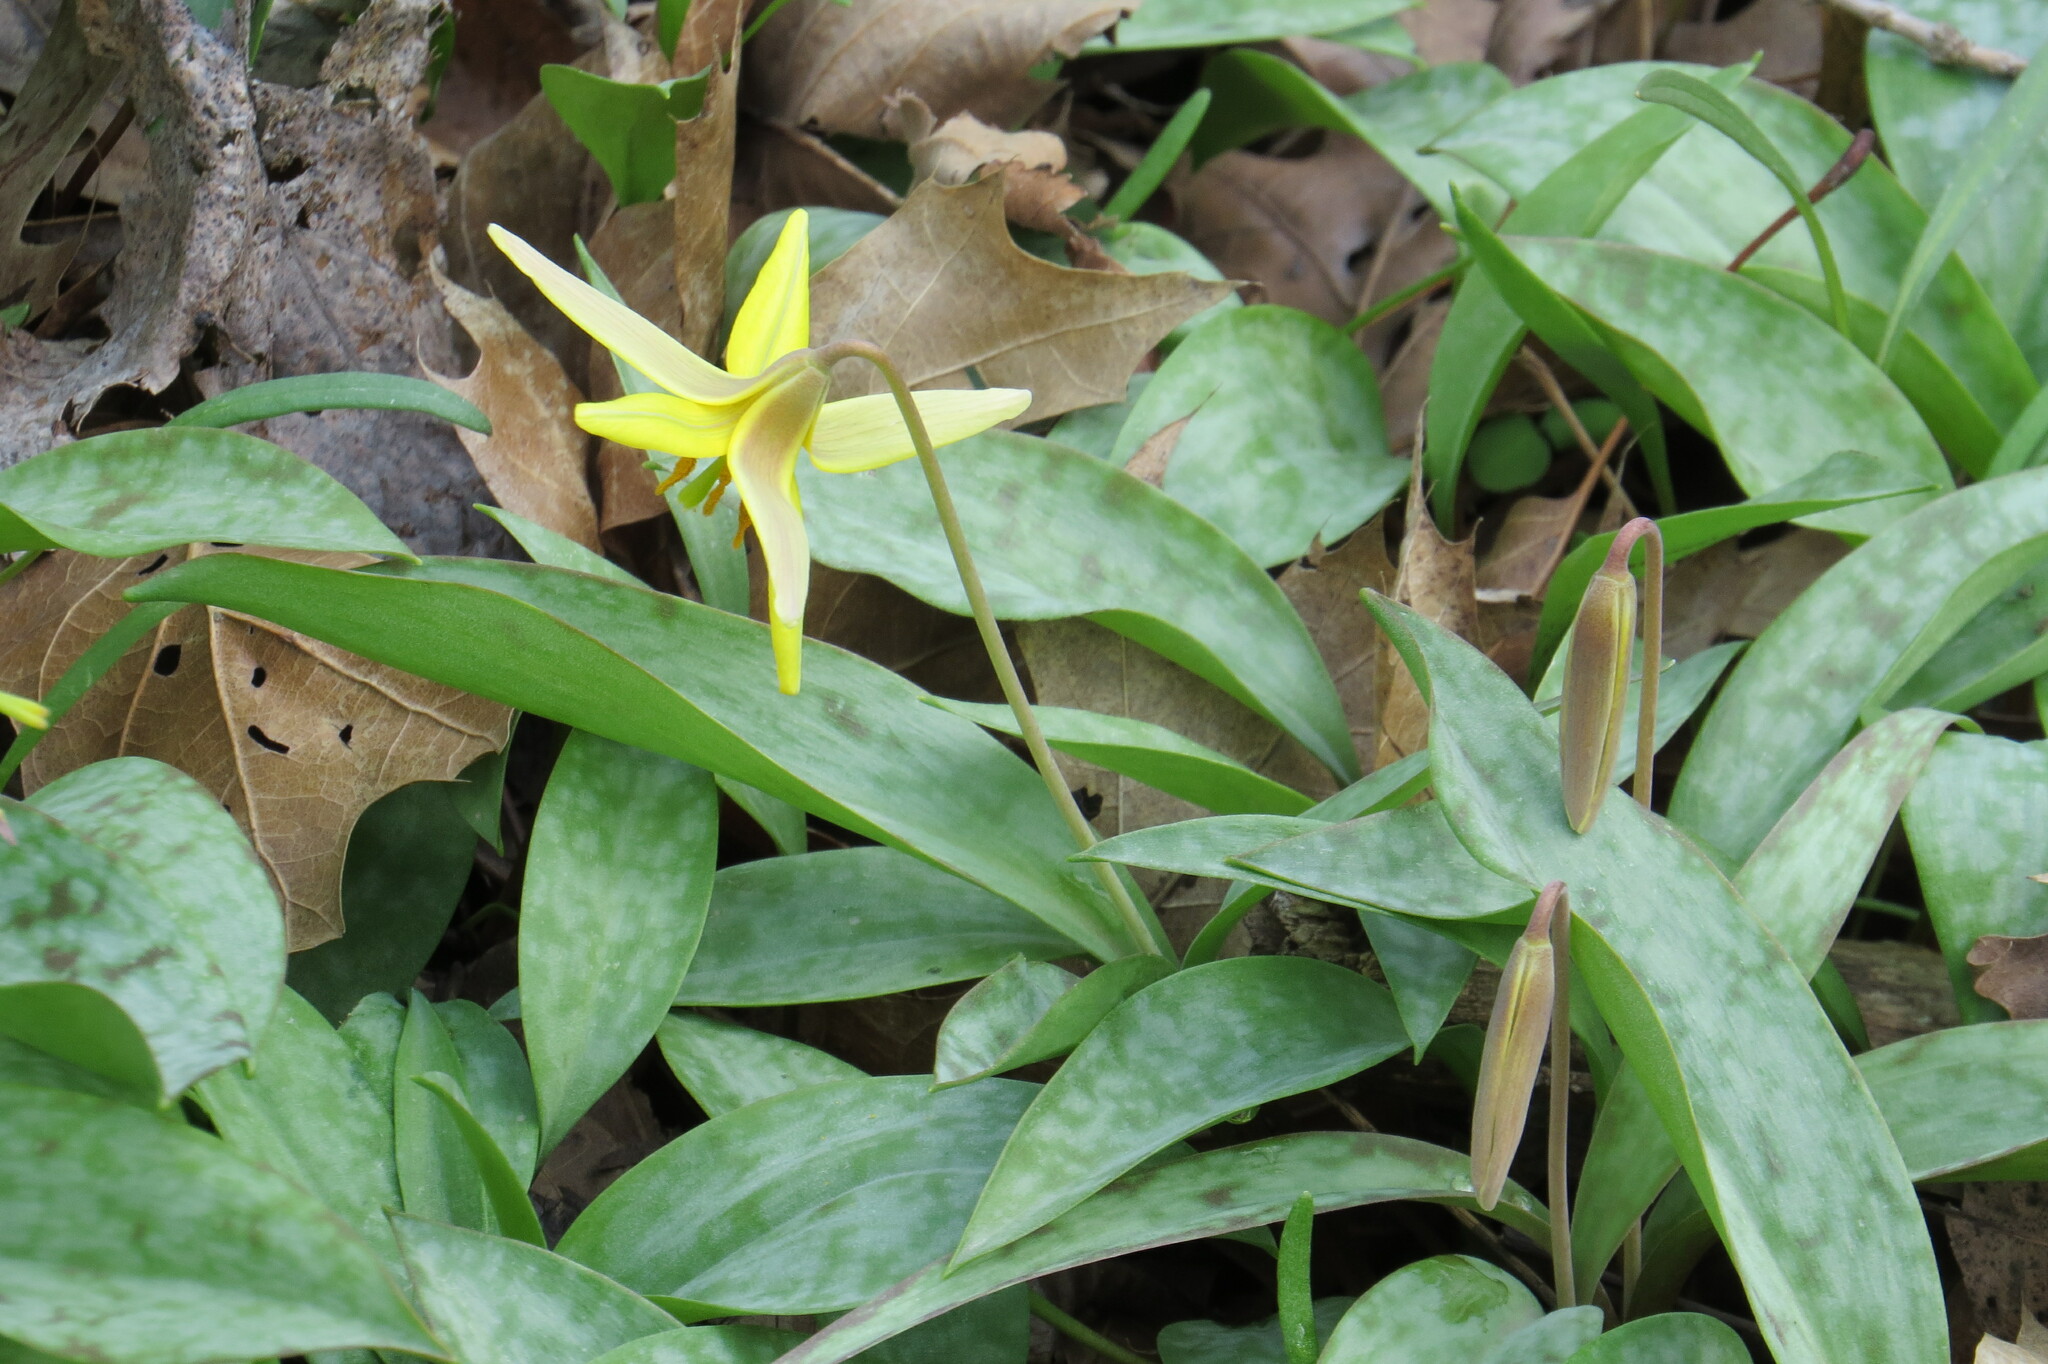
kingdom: Plantae
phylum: Tracheophyta
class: Liliopsida
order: Liliales
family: Liliaceae
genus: Erythronium
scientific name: Erythronium americanum
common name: Yellow adder's-tongue
